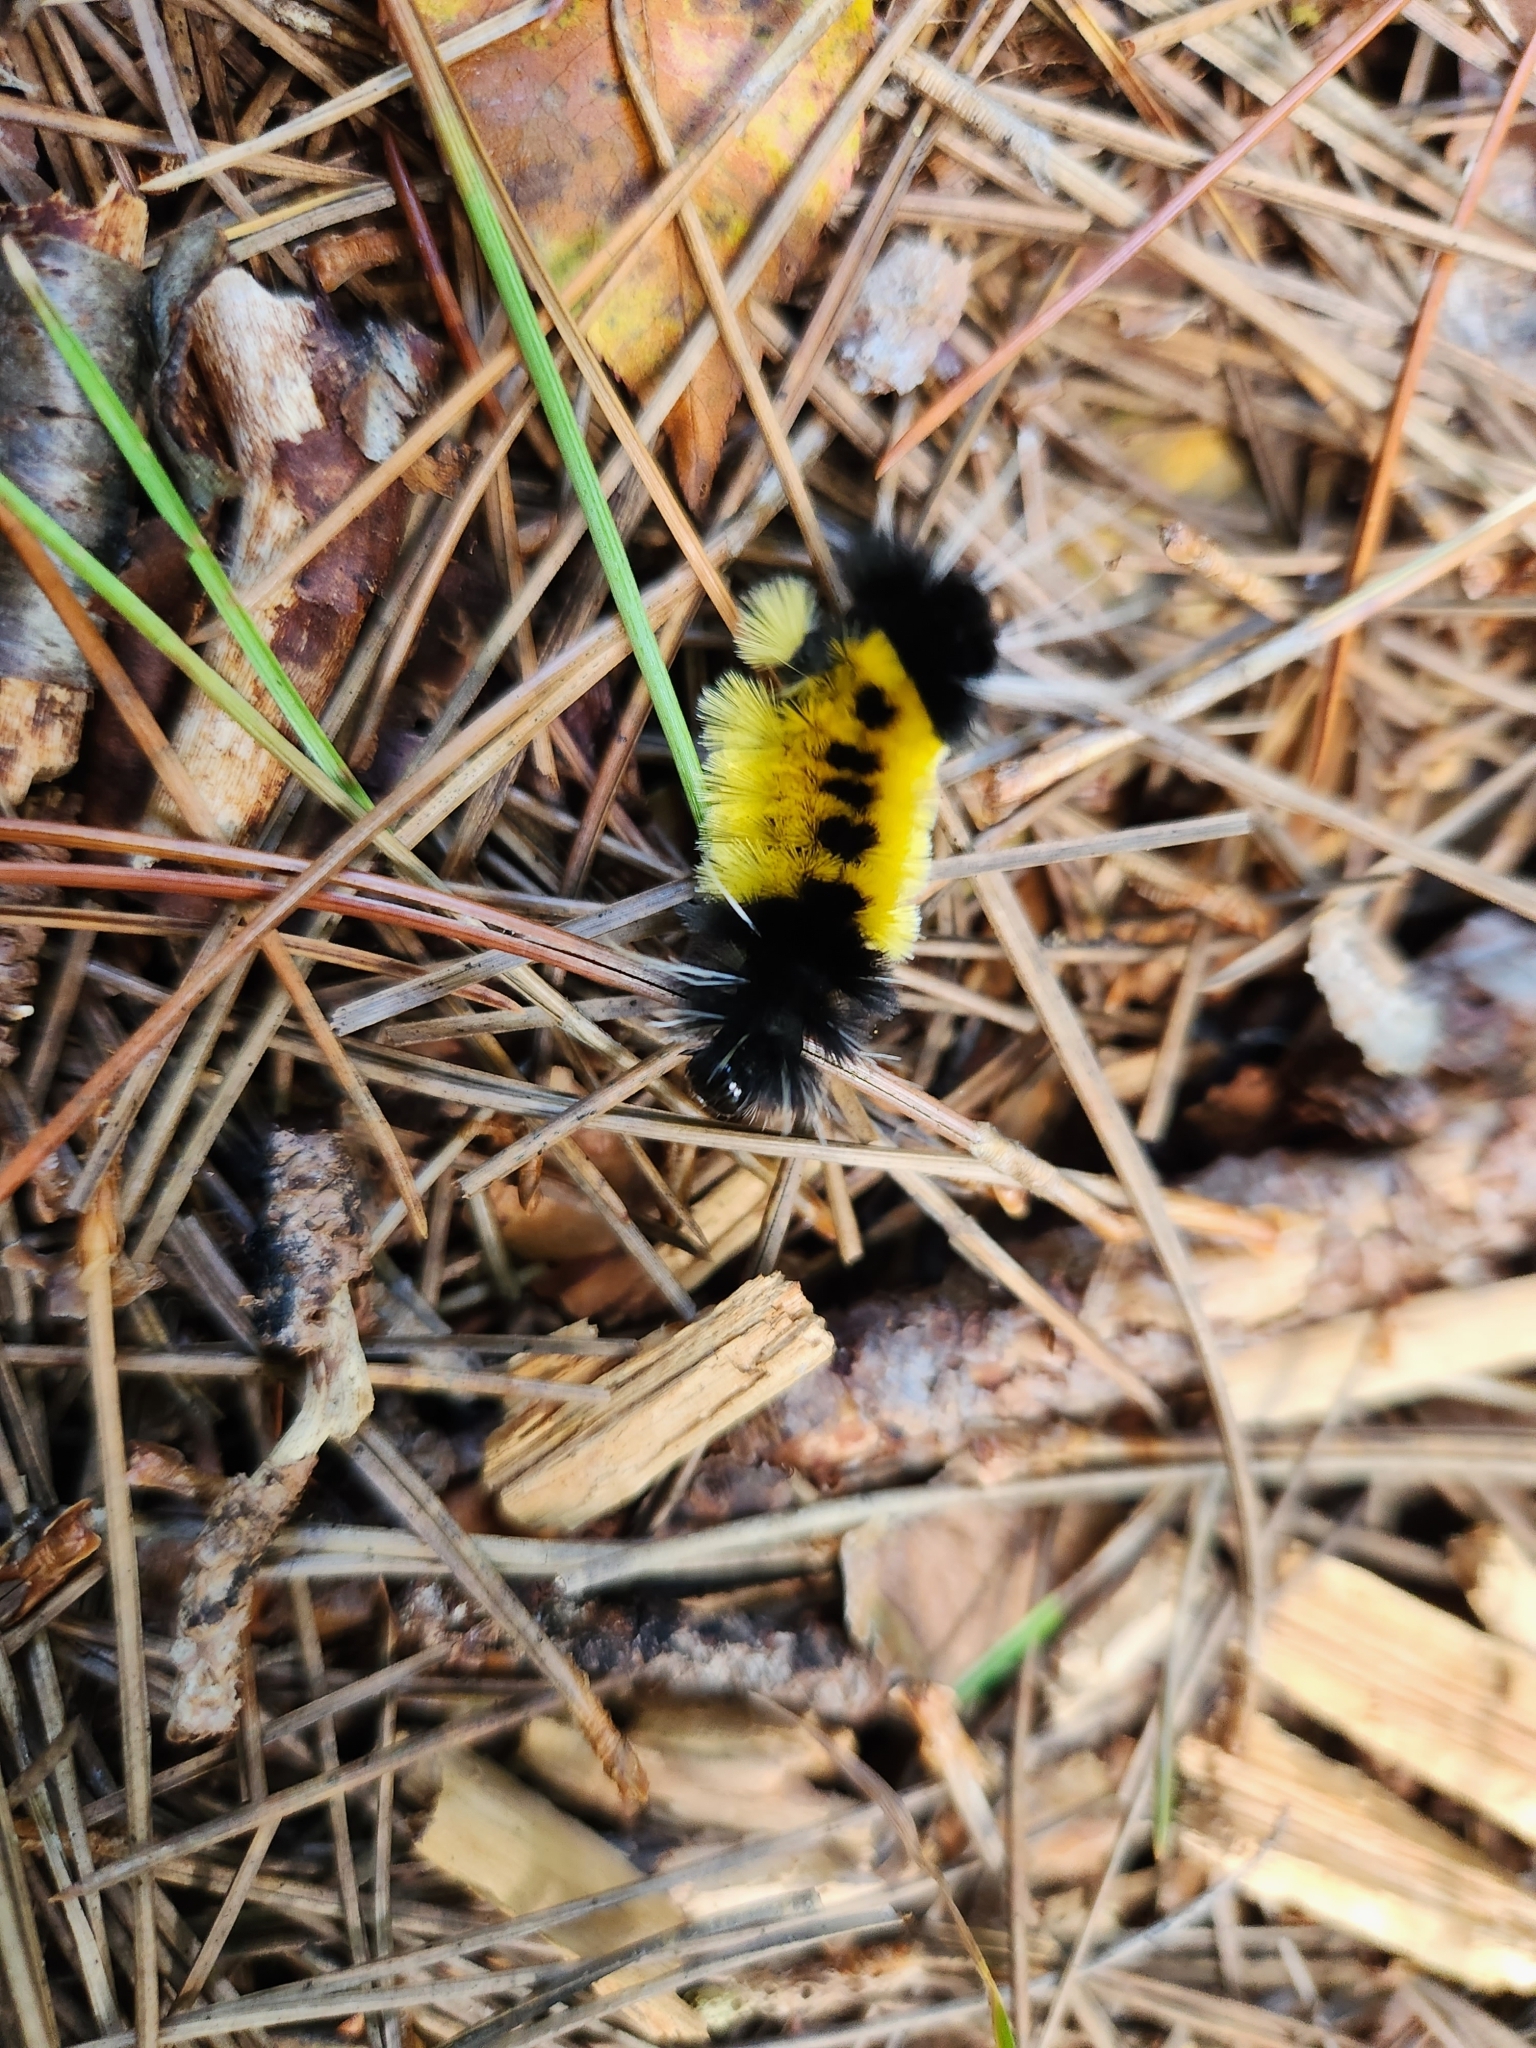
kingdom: Animalia
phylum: Arthropoda
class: Insecta
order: Lepidoptera
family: Erebidae
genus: Lophocampa
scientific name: Lophocampa maculata
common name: Spotted tussock moth
